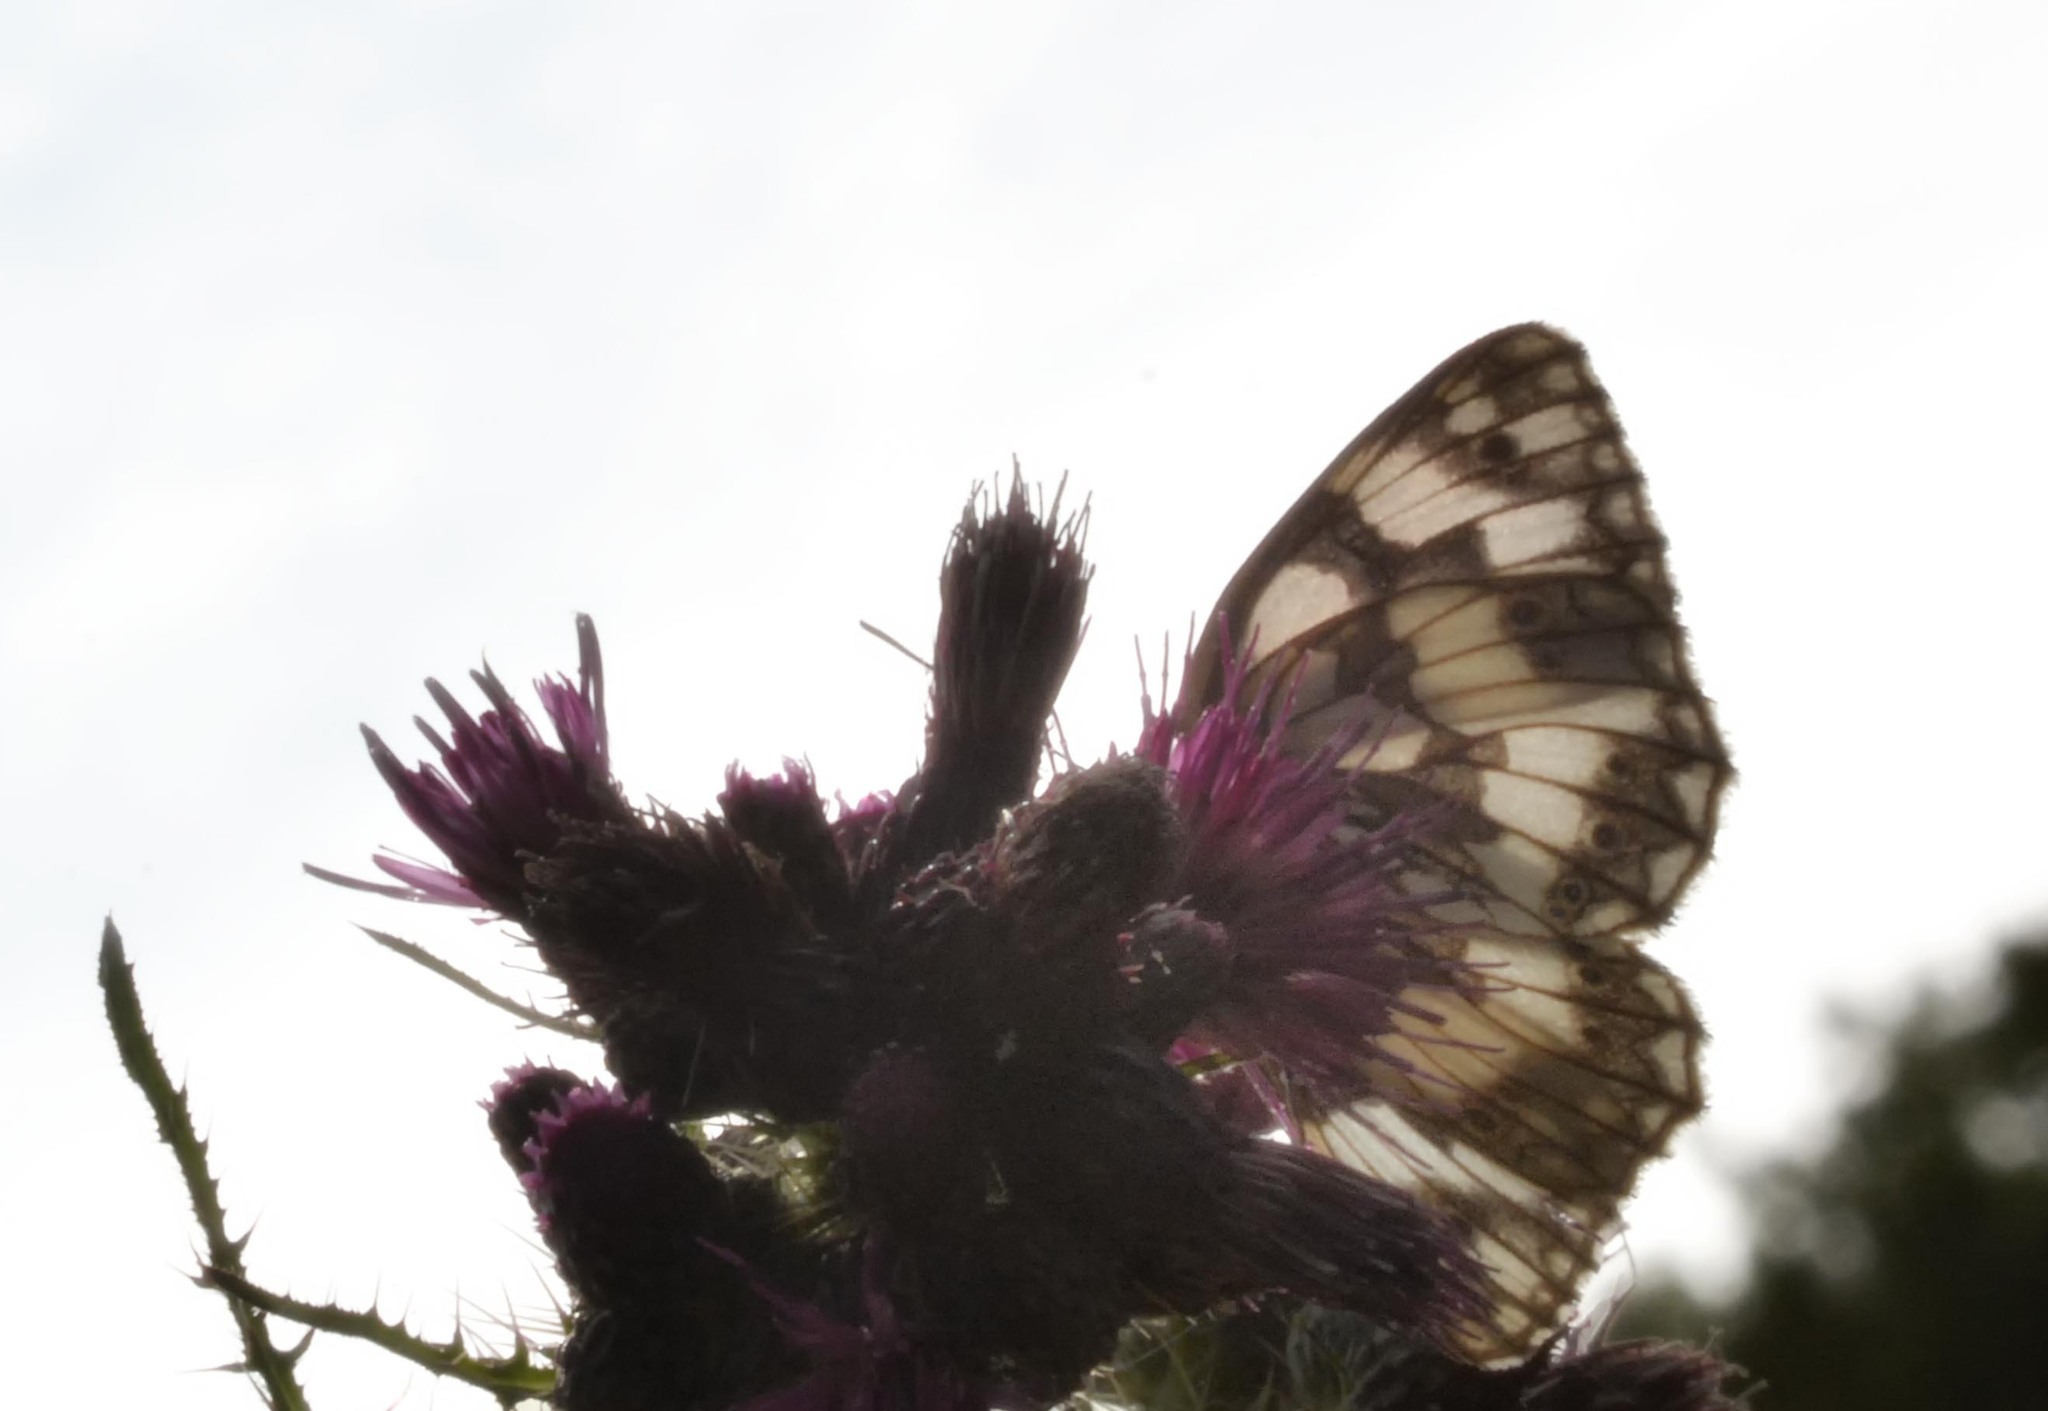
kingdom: Animalia
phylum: Arthropoda
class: Insecta
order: Lepidoptera
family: Nymphalidae
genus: Melanargia
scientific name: Melanargia galathea
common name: Marbled white
